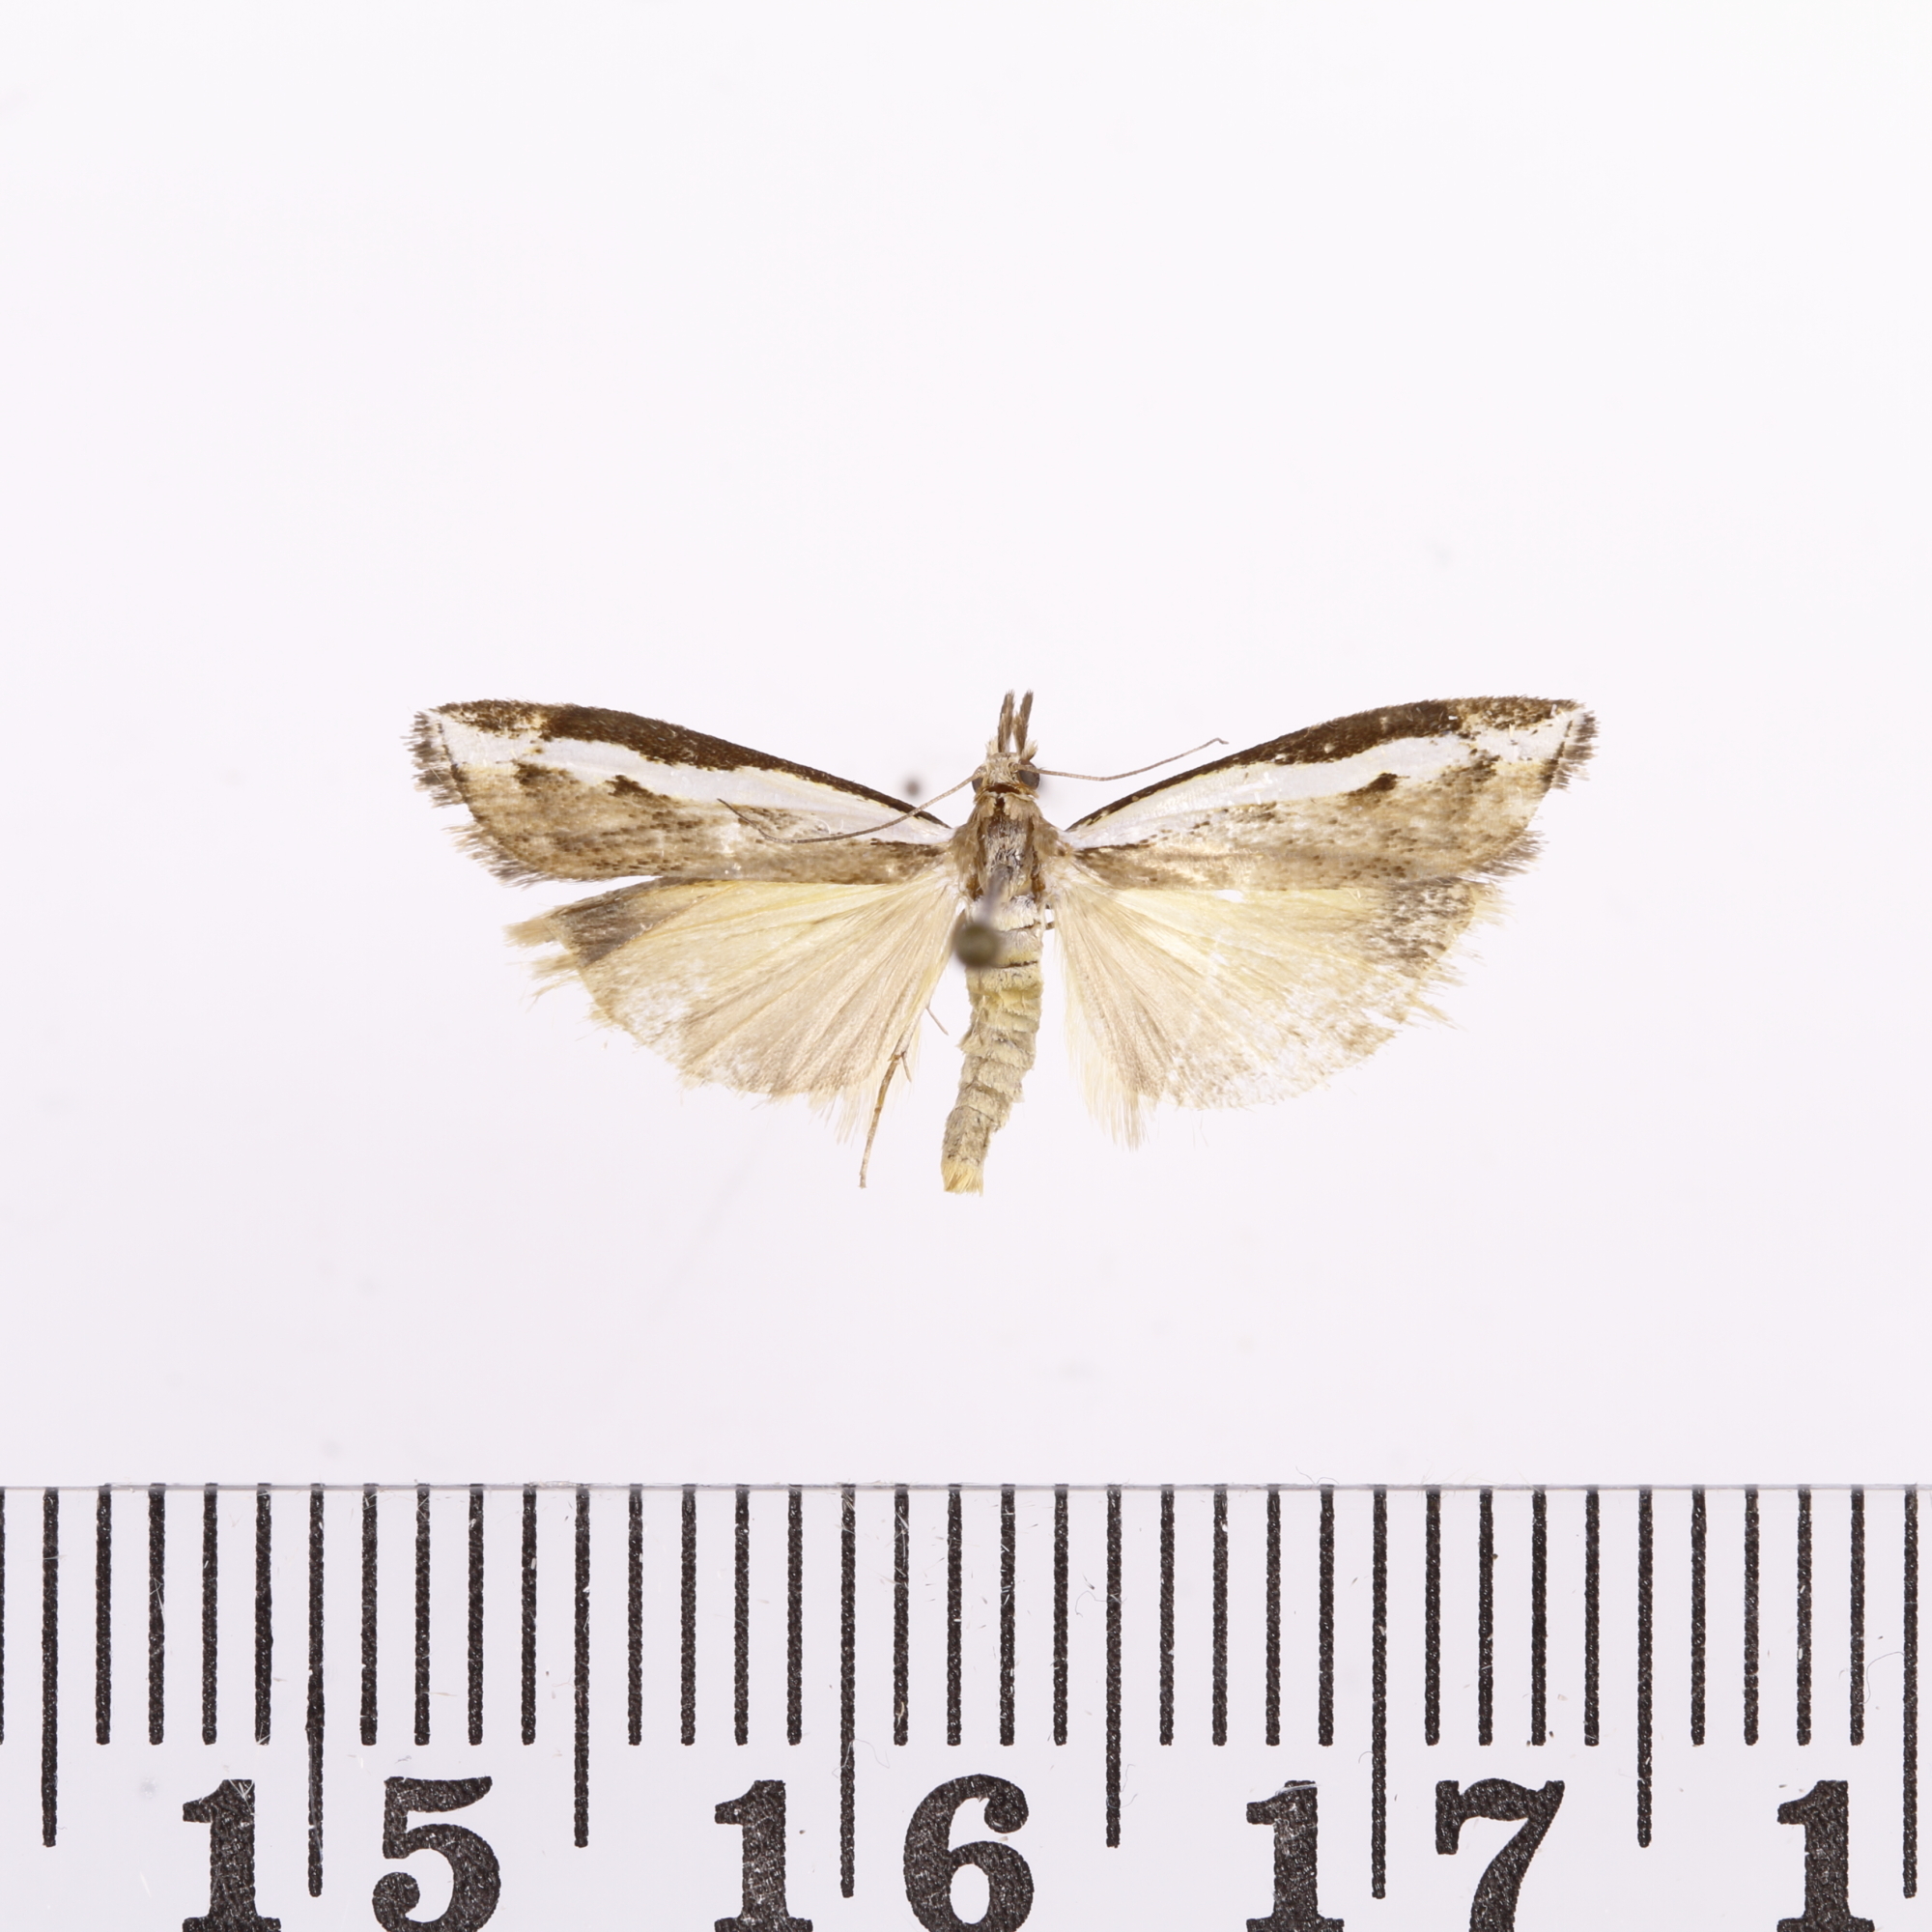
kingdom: Animalia
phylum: Arthropoda
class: Insecta
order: Lepidoptera
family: Crambidae
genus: Orocrambus
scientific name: Orocrambus flexuosellus
